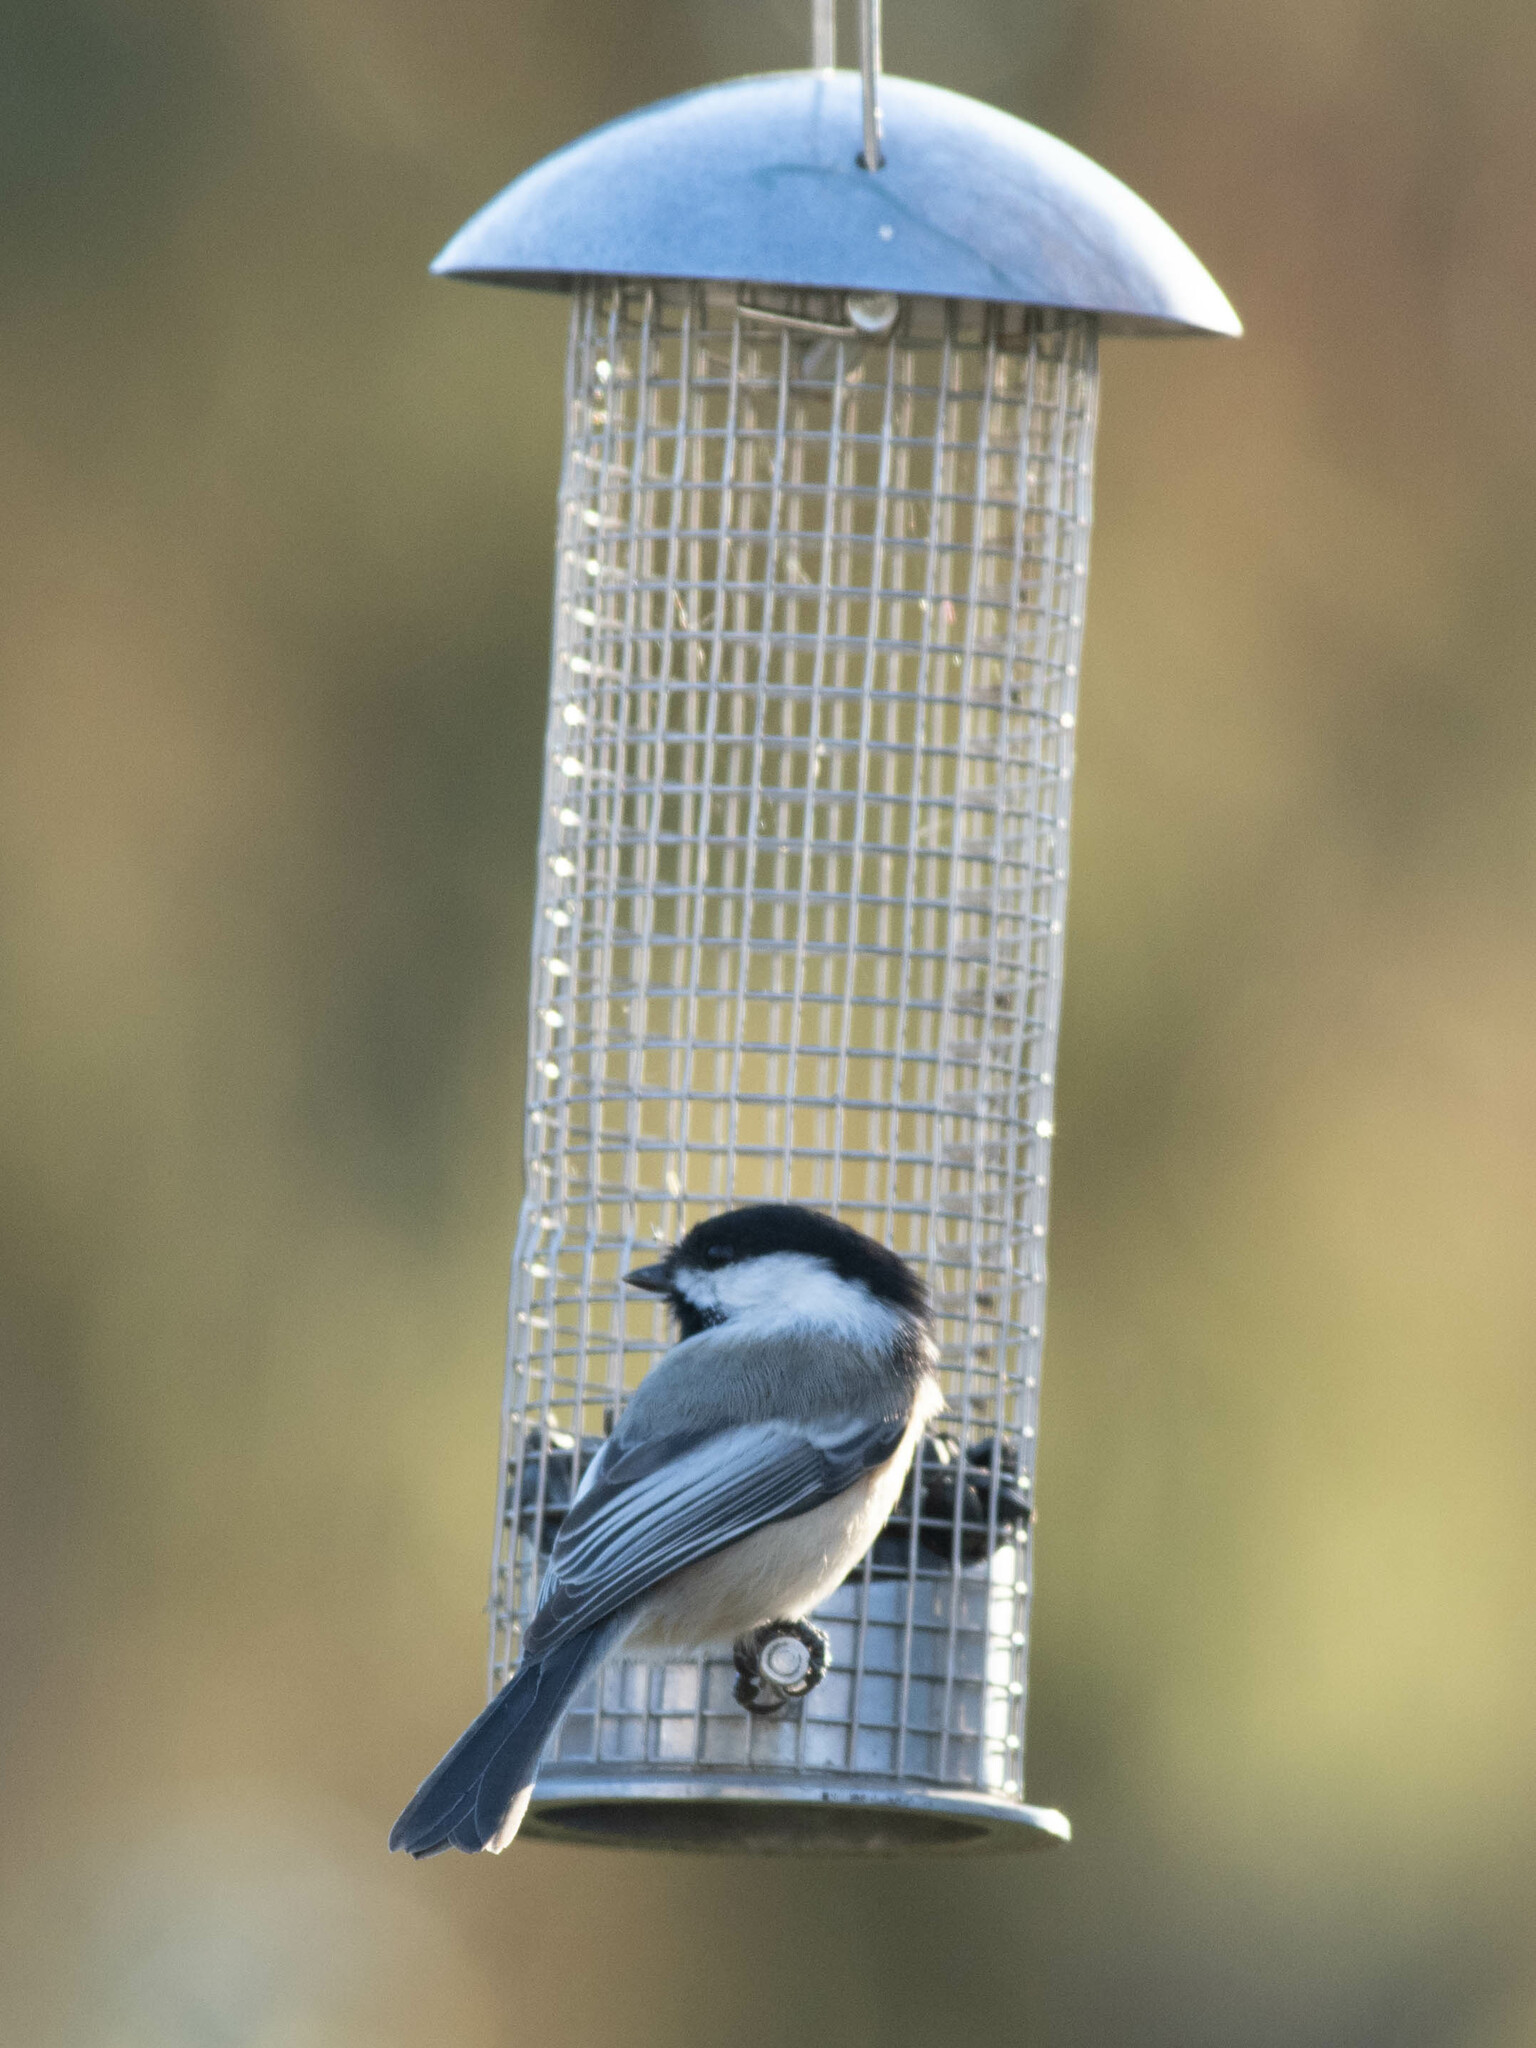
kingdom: Animalia
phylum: Chordata
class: Aves
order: Passeriformes
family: Paridae
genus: Poecile
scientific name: Poecile atricapillus
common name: Black-capped chickadee
